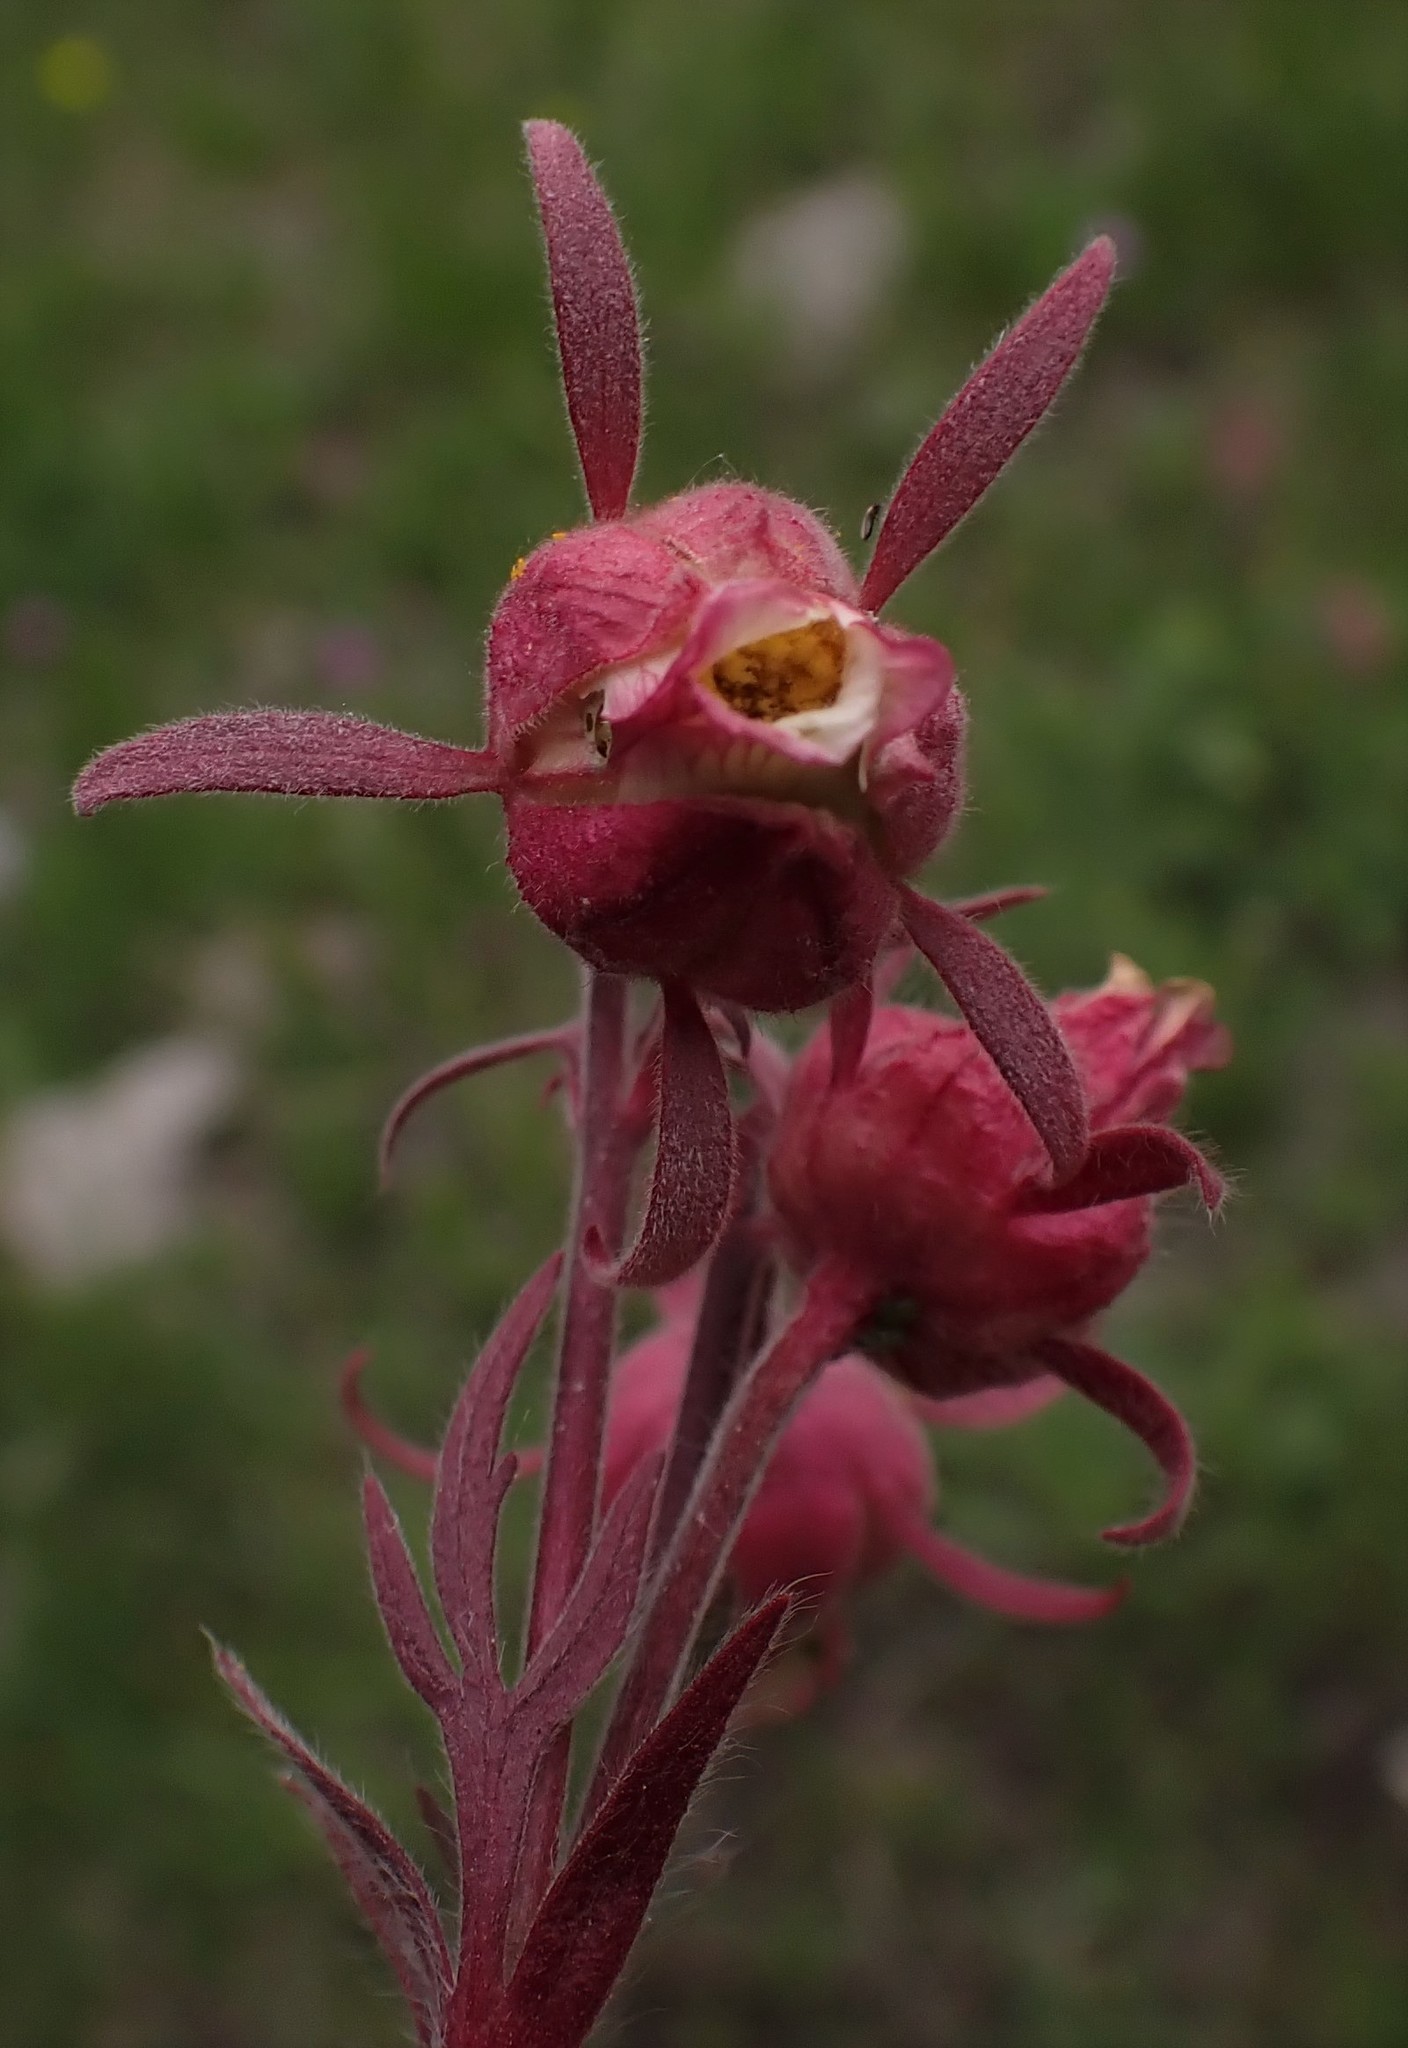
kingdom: Plantae
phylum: Tracheophyta
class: Magnoliopsida
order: Rosales
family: Rosaceae
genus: Geum
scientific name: Geum triflorum
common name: Old man's whiskers
